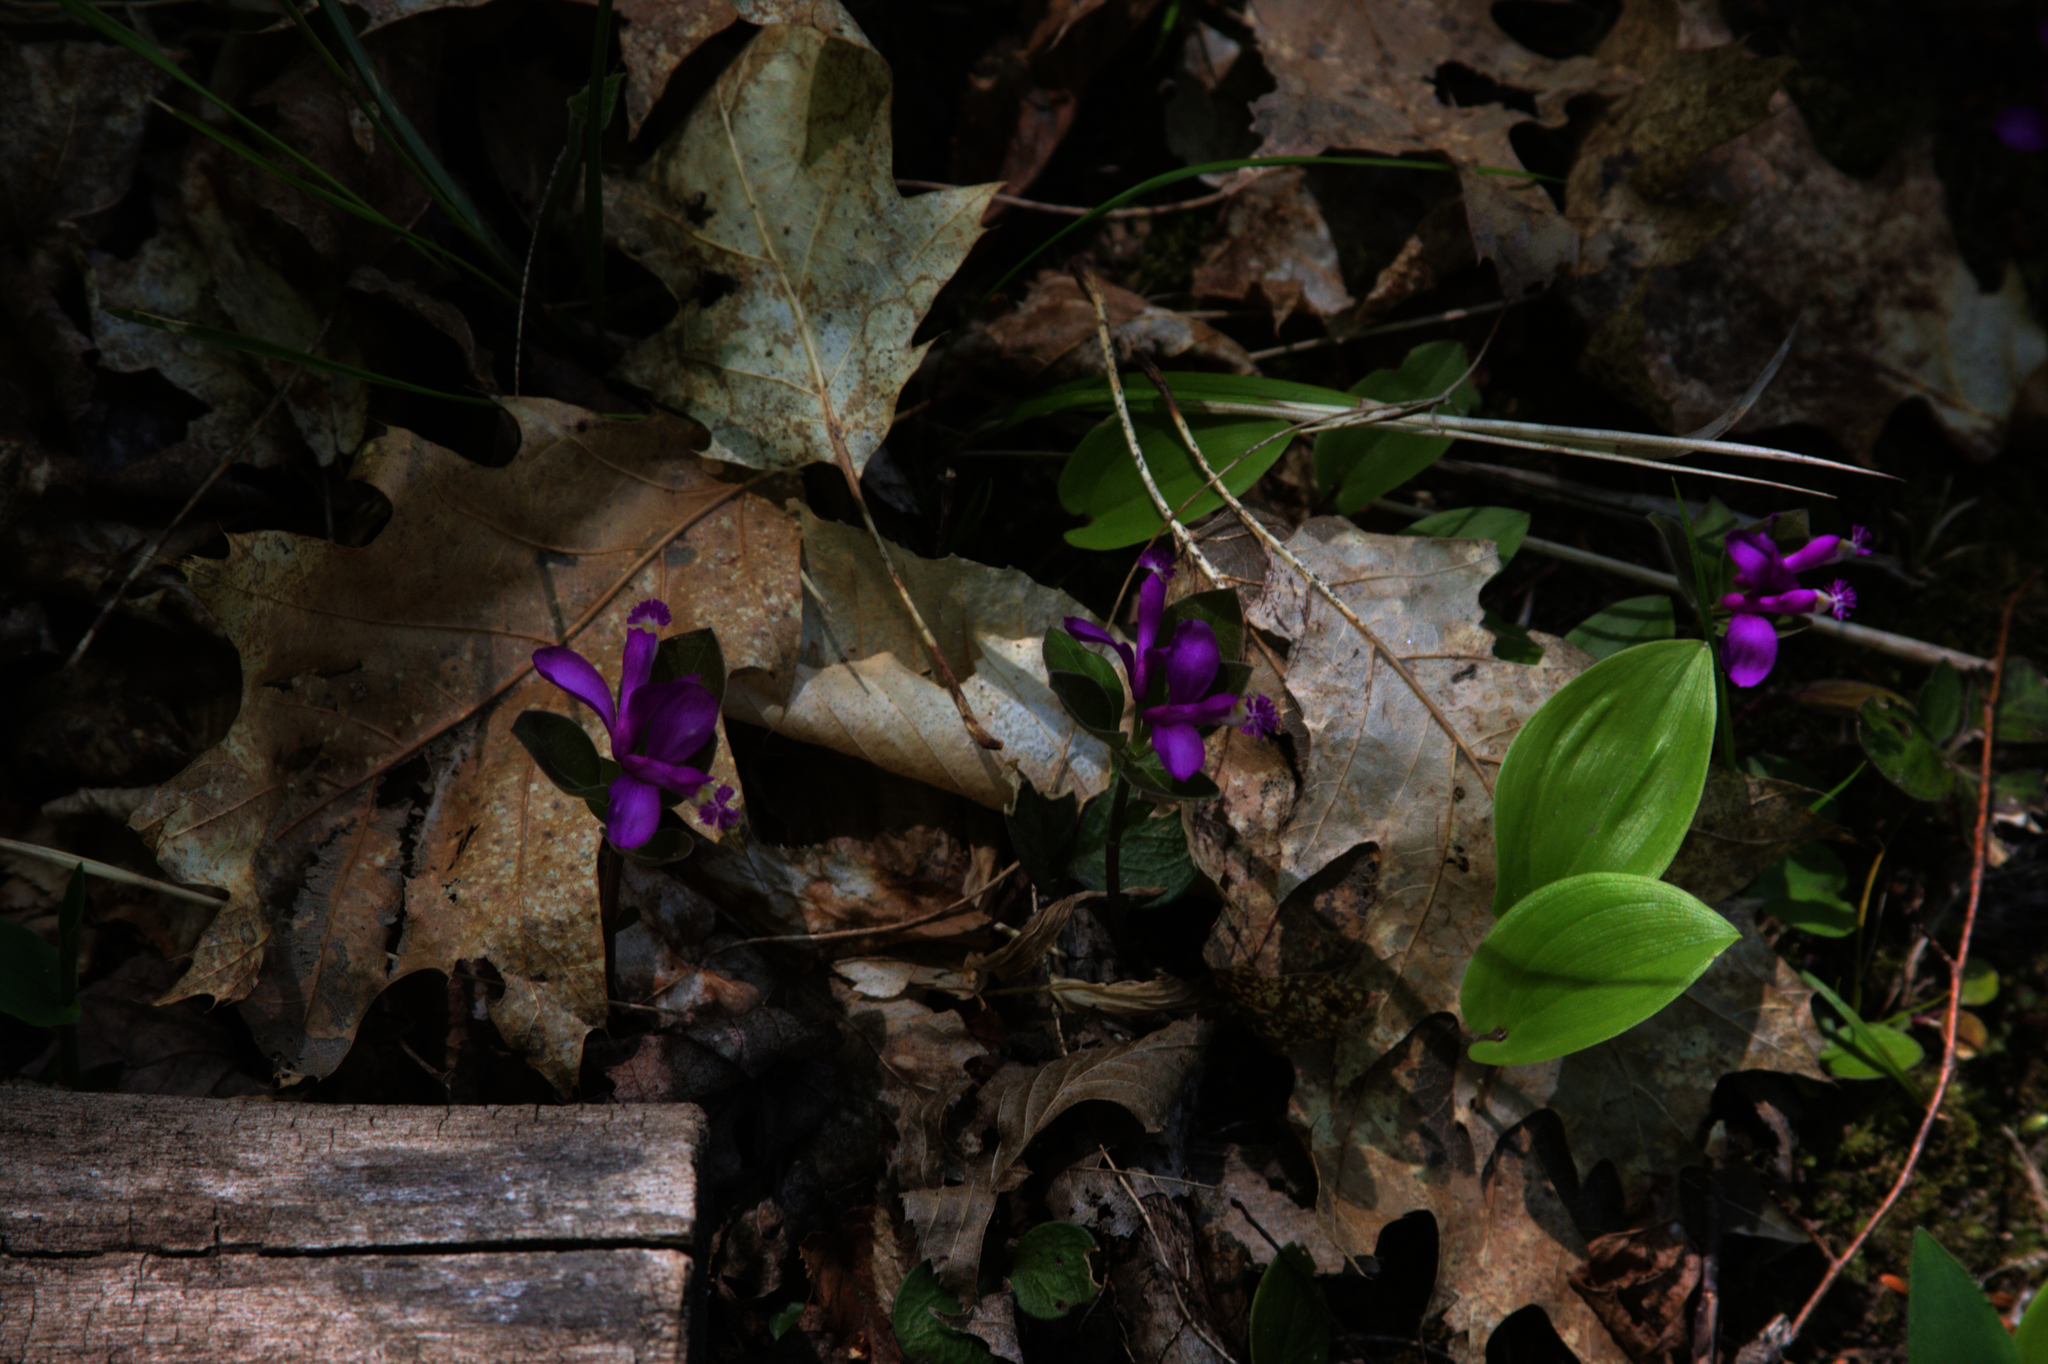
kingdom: Plantae
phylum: Tracheophyta
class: Magnoliopsida
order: Fabales
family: Polygalaceae
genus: Polygaloides
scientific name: Polygaloides paucifolia
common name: Bird-on-the-wing
